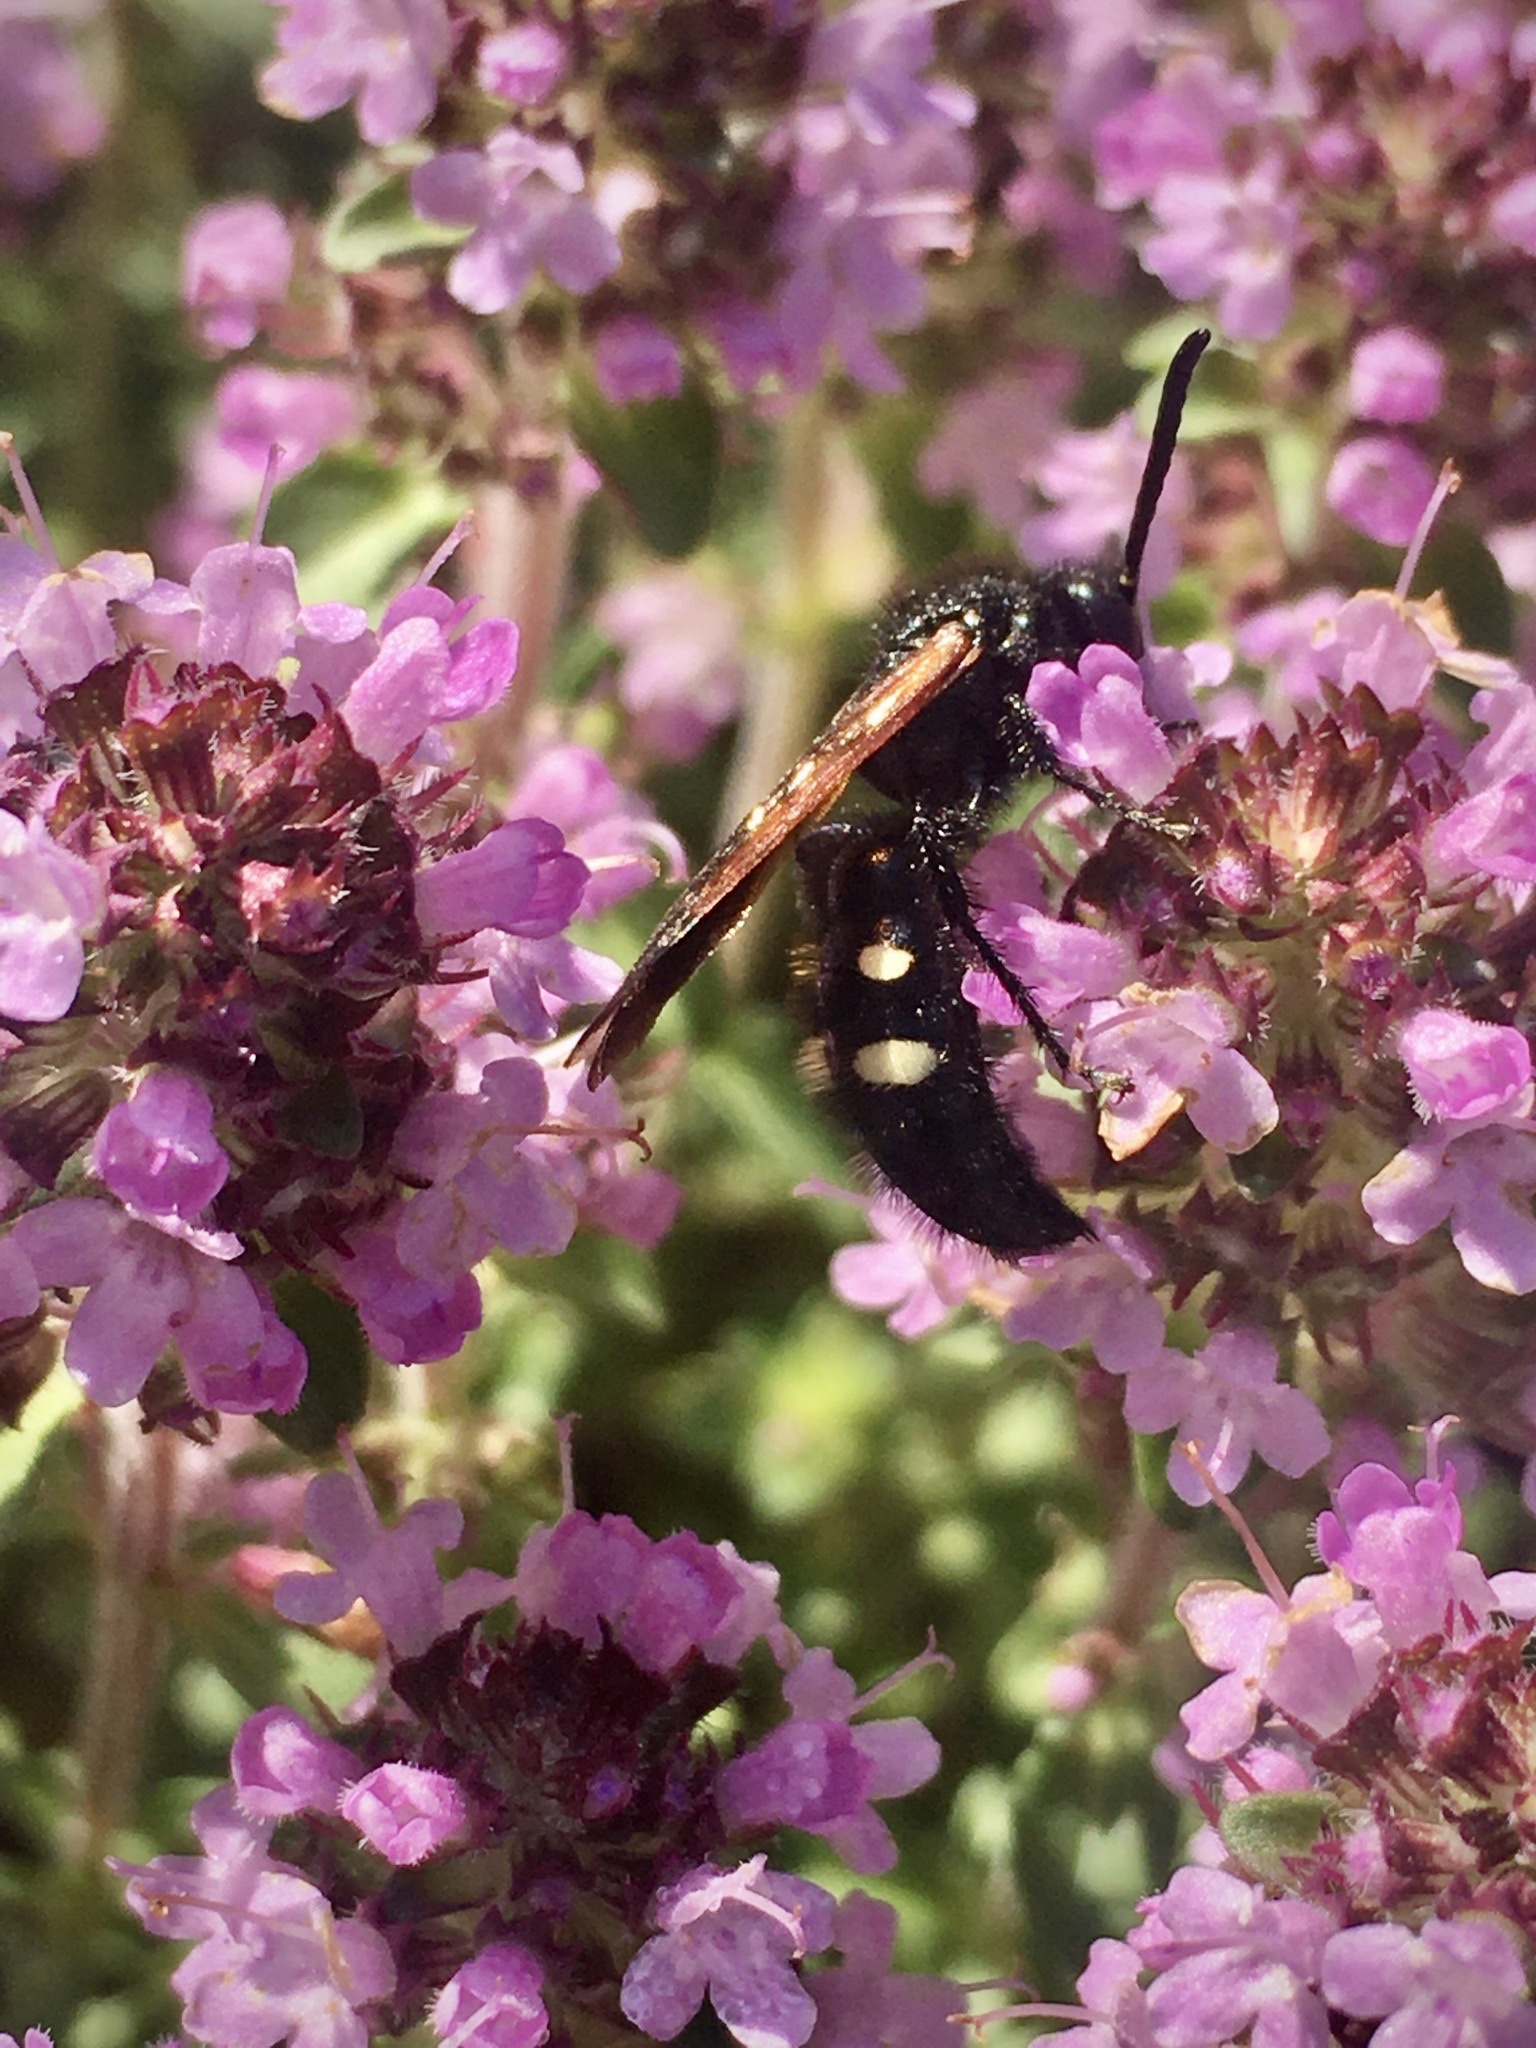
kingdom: Animalia
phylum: Arthropoda
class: Insecta
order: Hymenoptera
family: Vespidae
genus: Vespa
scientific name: Vespa sexmaculata
